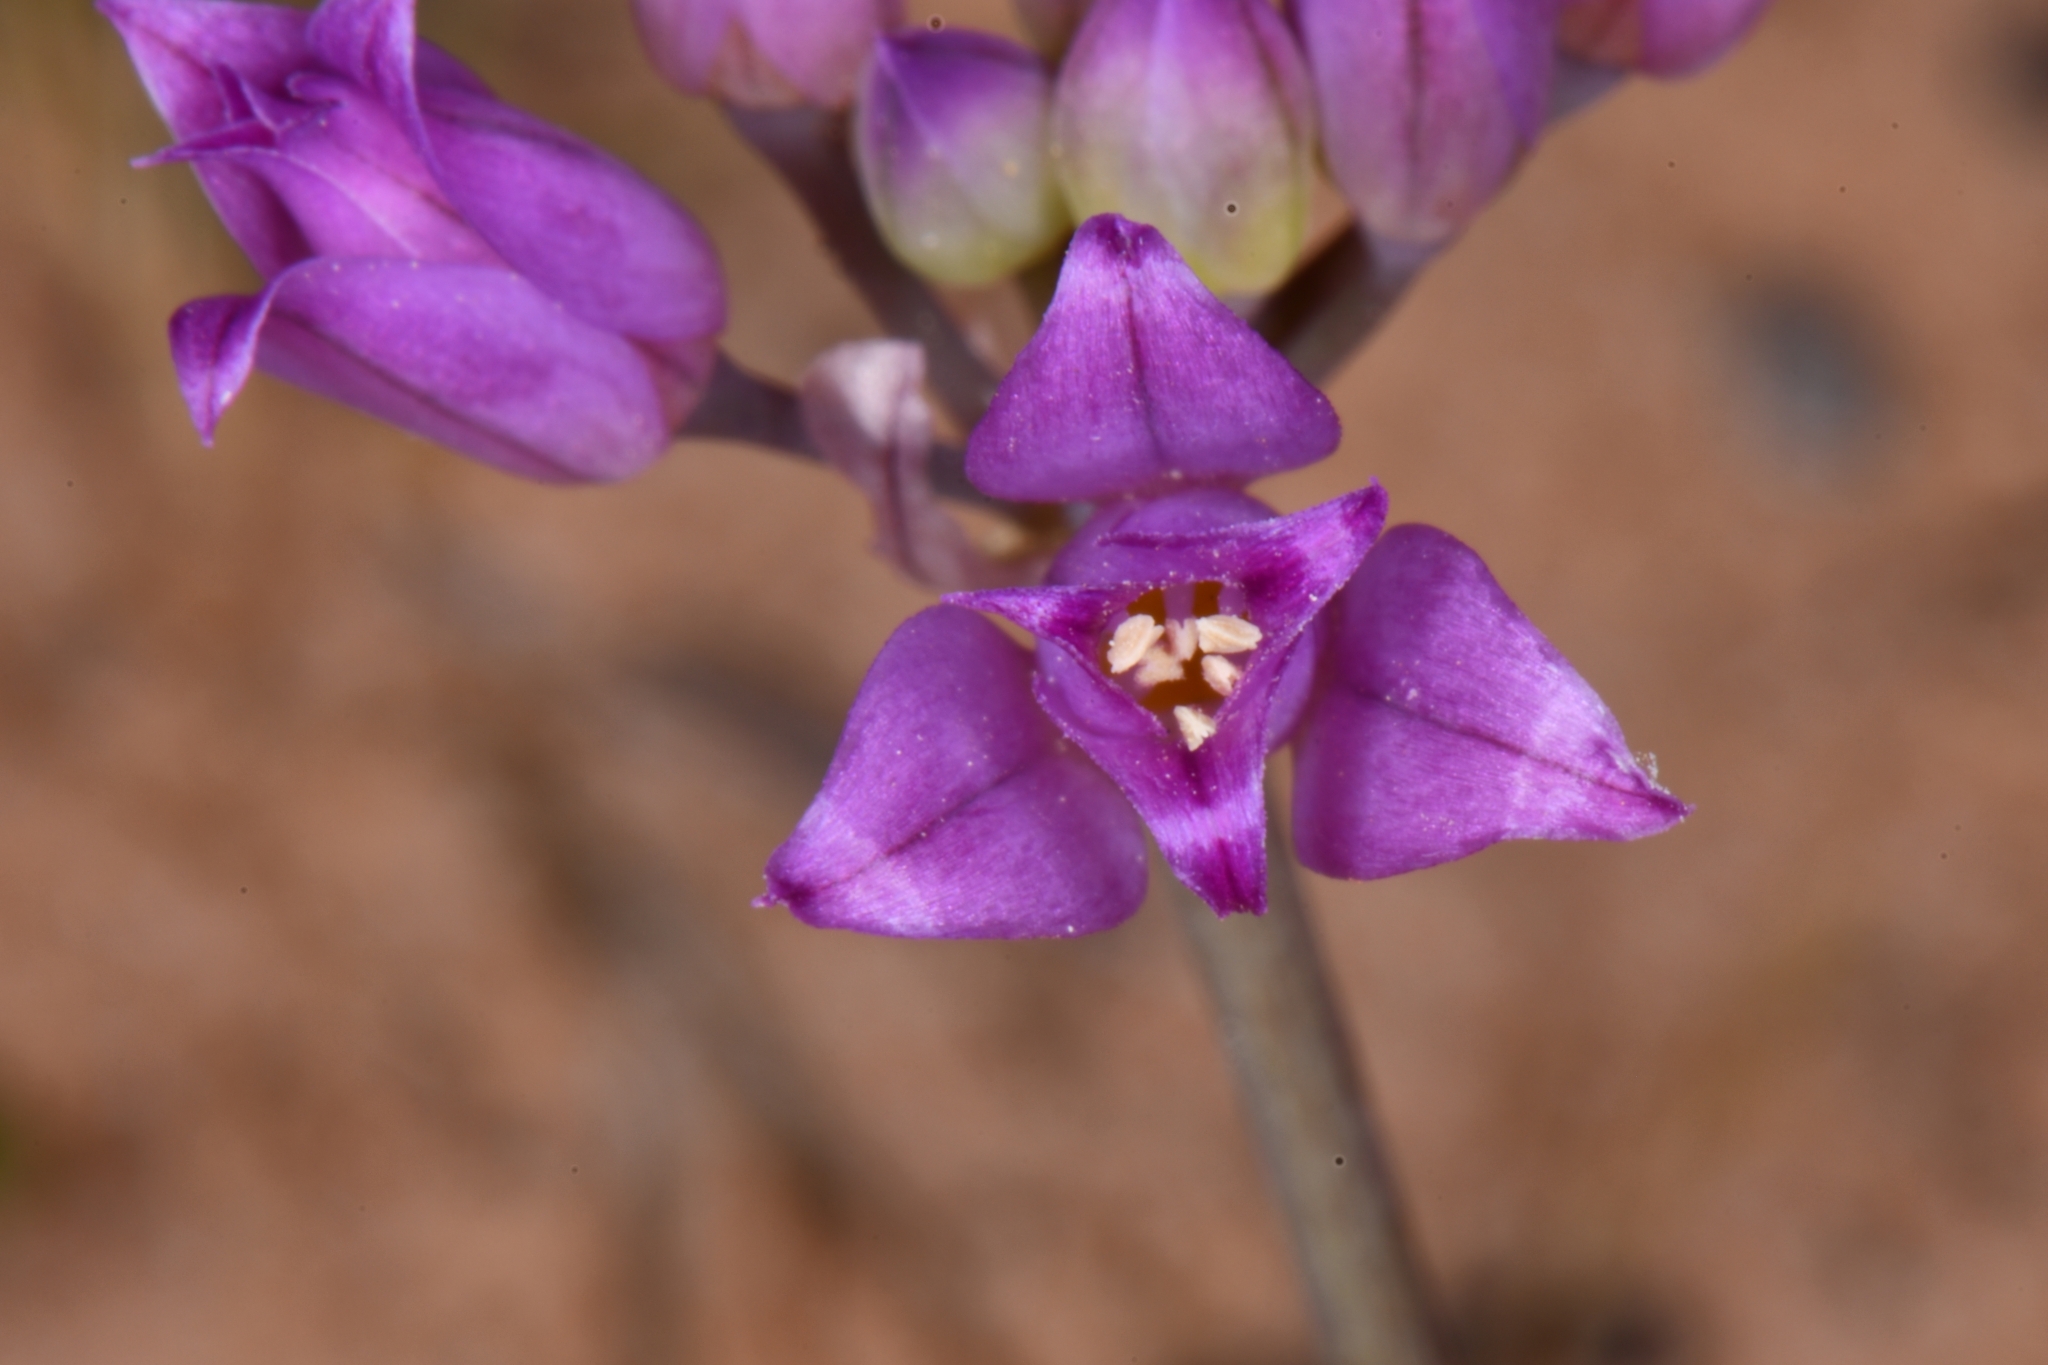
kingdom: Plantae
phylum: Tracheophyta
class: Liliopsida
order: Asparagales
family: Amaryllidaceae
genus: Allium
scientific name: Allium acuminatum
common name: Hooker's onion
